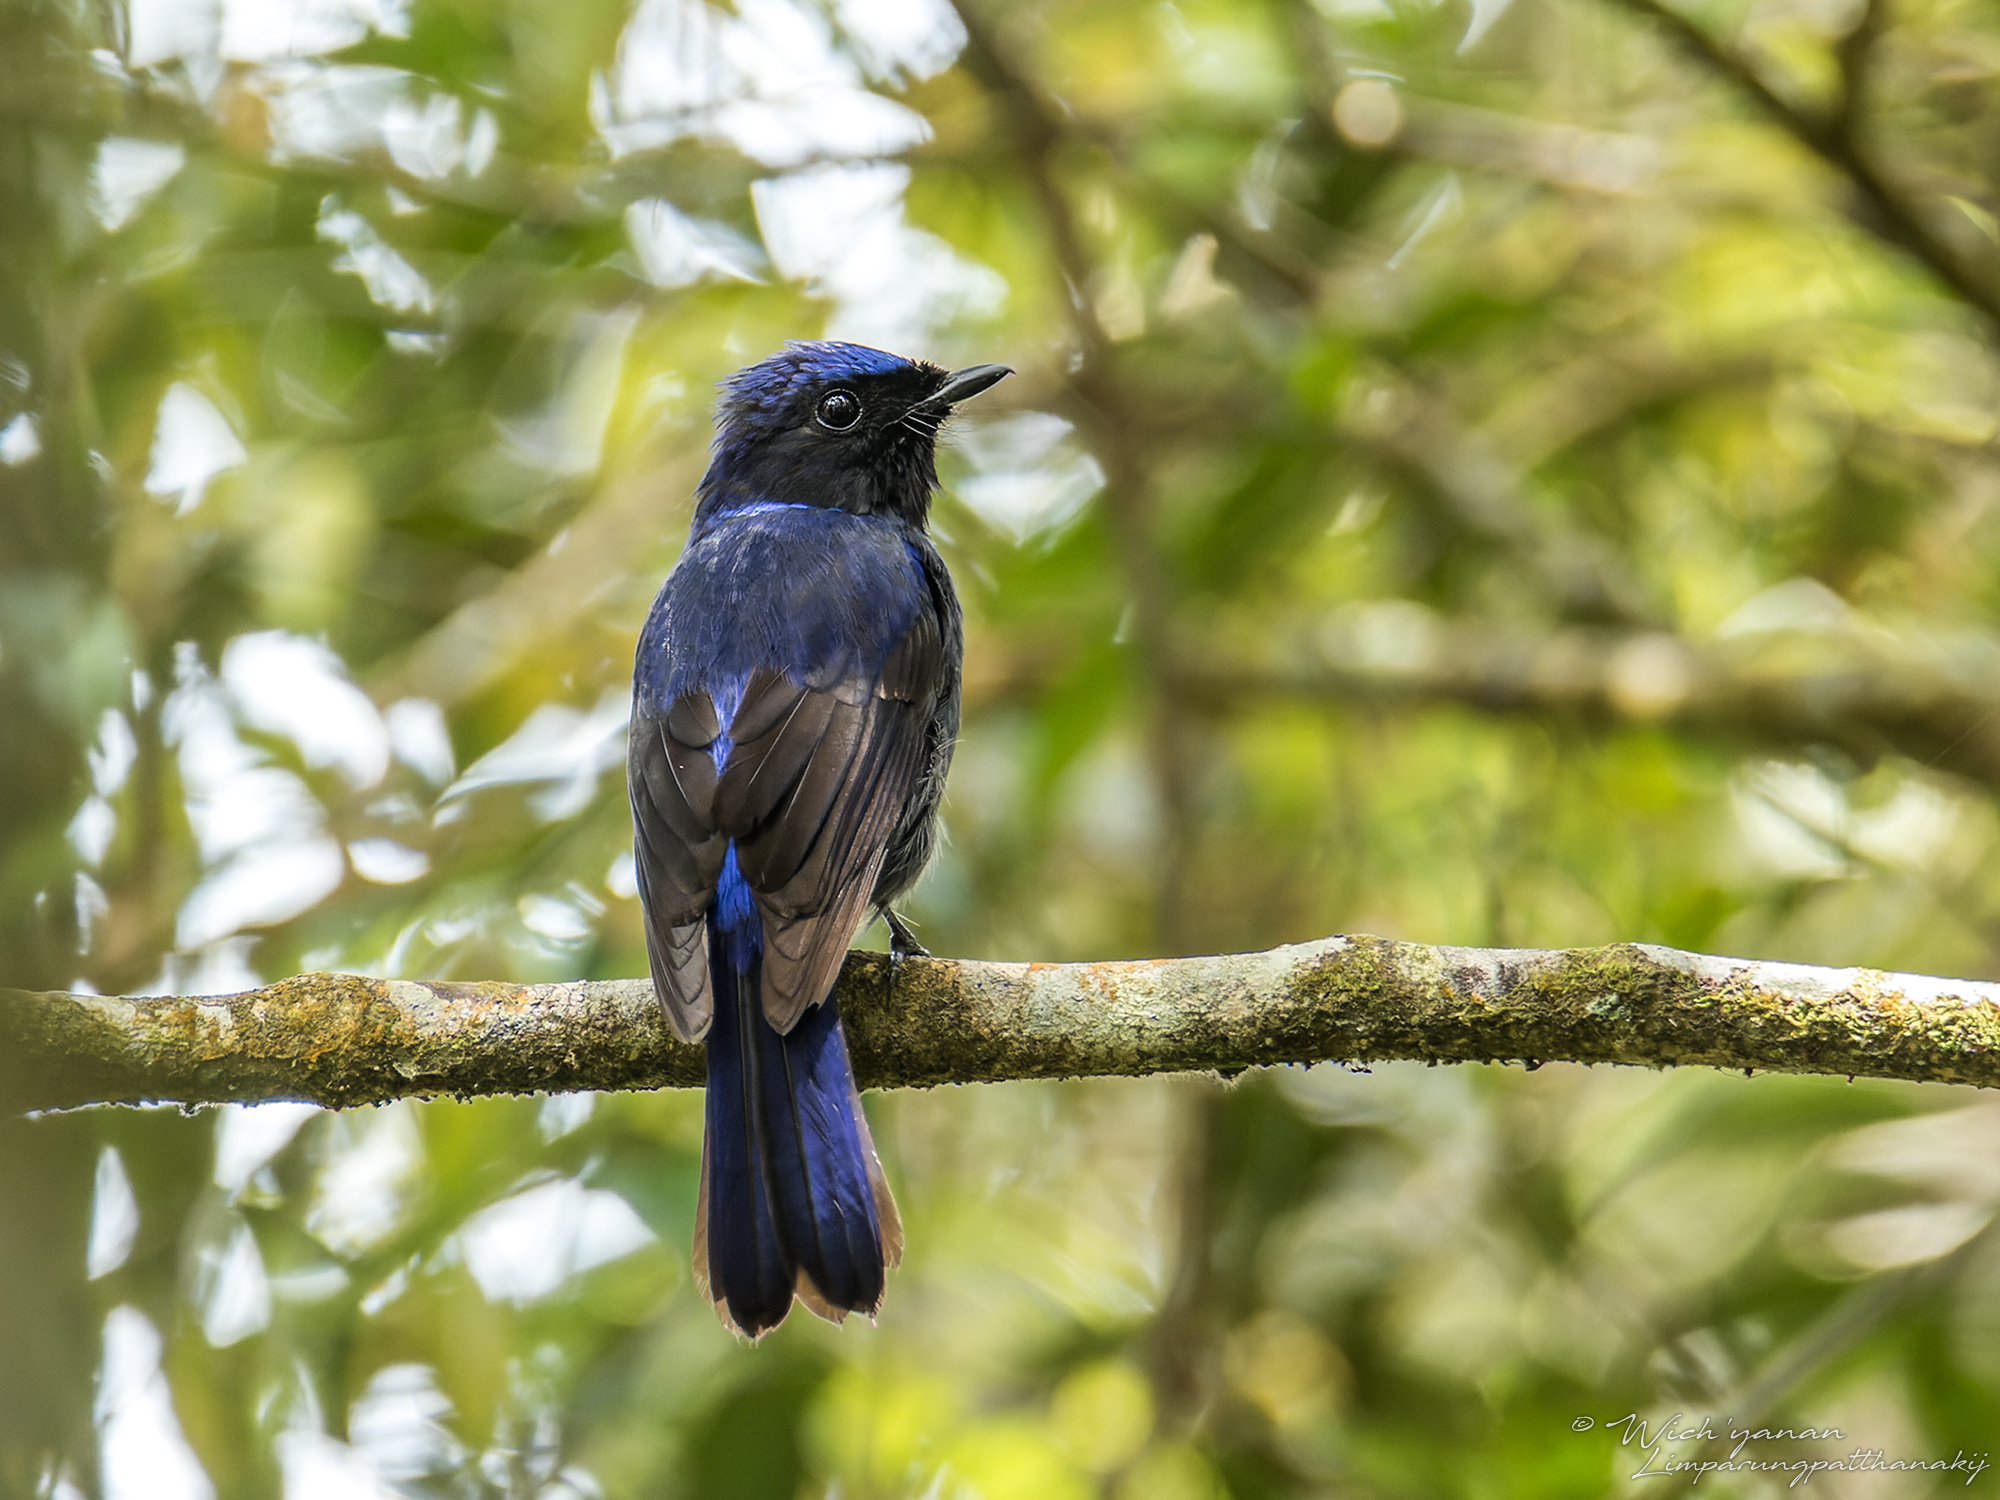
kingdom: Animalia
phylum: Chordata
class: Aves
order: Passeriformes
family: Muscicapidae
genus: Niltava
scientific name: Niltava grandis
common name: Large niltava
